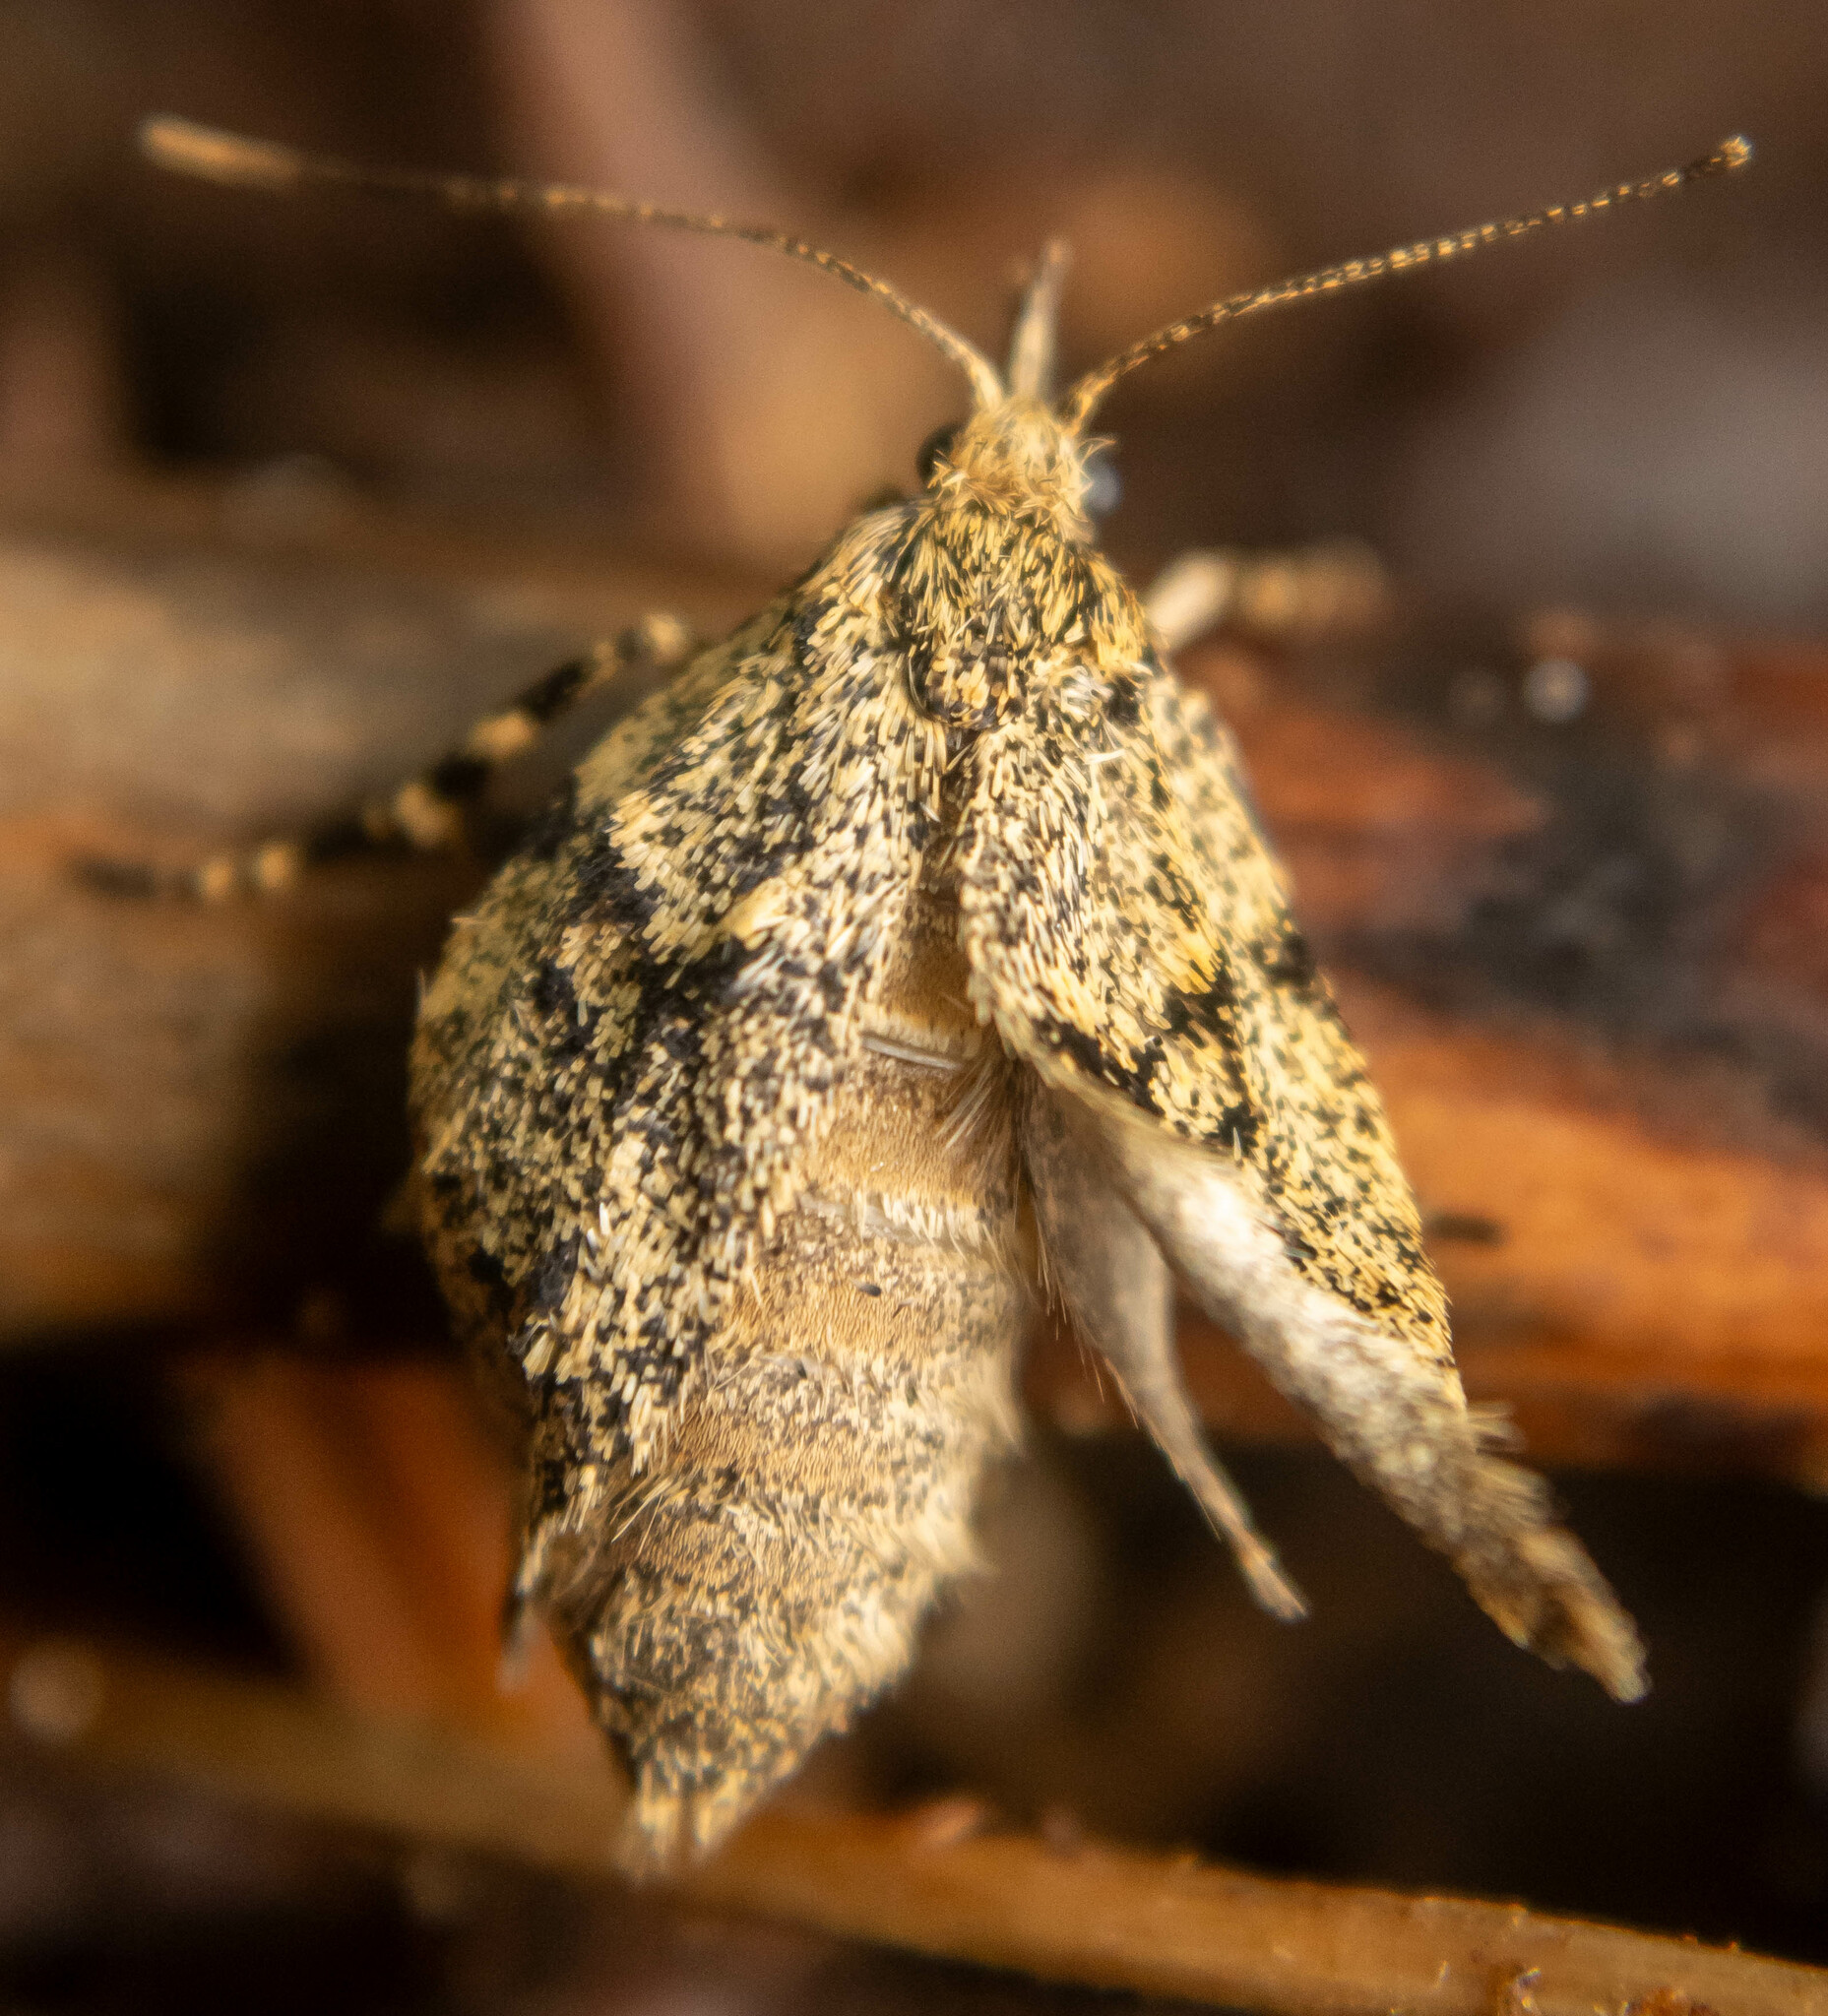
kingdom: Animalia
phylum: Arthropoda
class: Insecta
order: Lepidoptera
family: Lypusidae
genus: Diurnea
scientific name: Diurnea fagella
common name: March tubic
